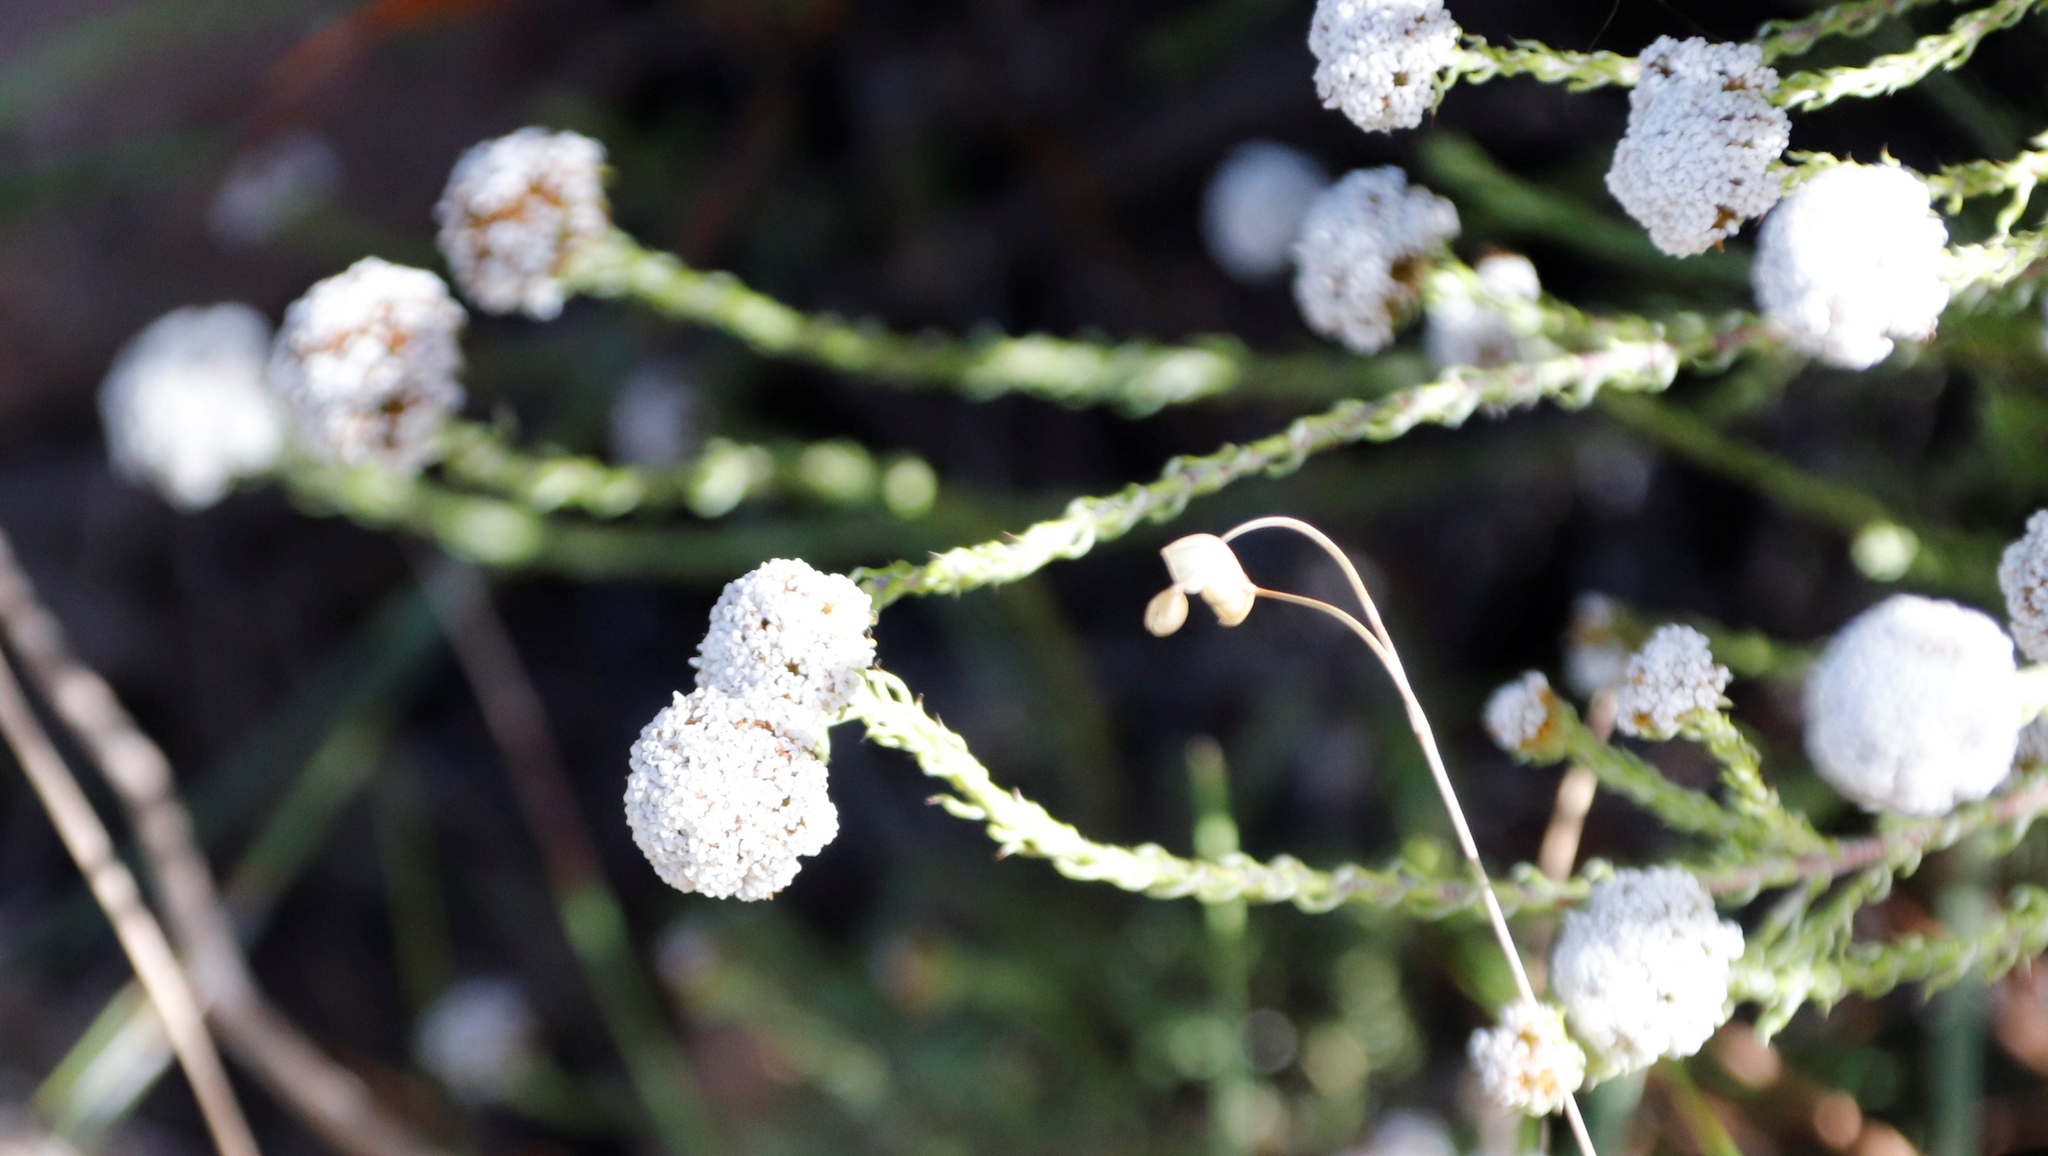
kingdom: Plantae
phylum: Tracheophyta
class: Magnoliopsida
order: Asterales
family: Asteraceae
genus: Stoebe
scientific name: Stoebe capitata
